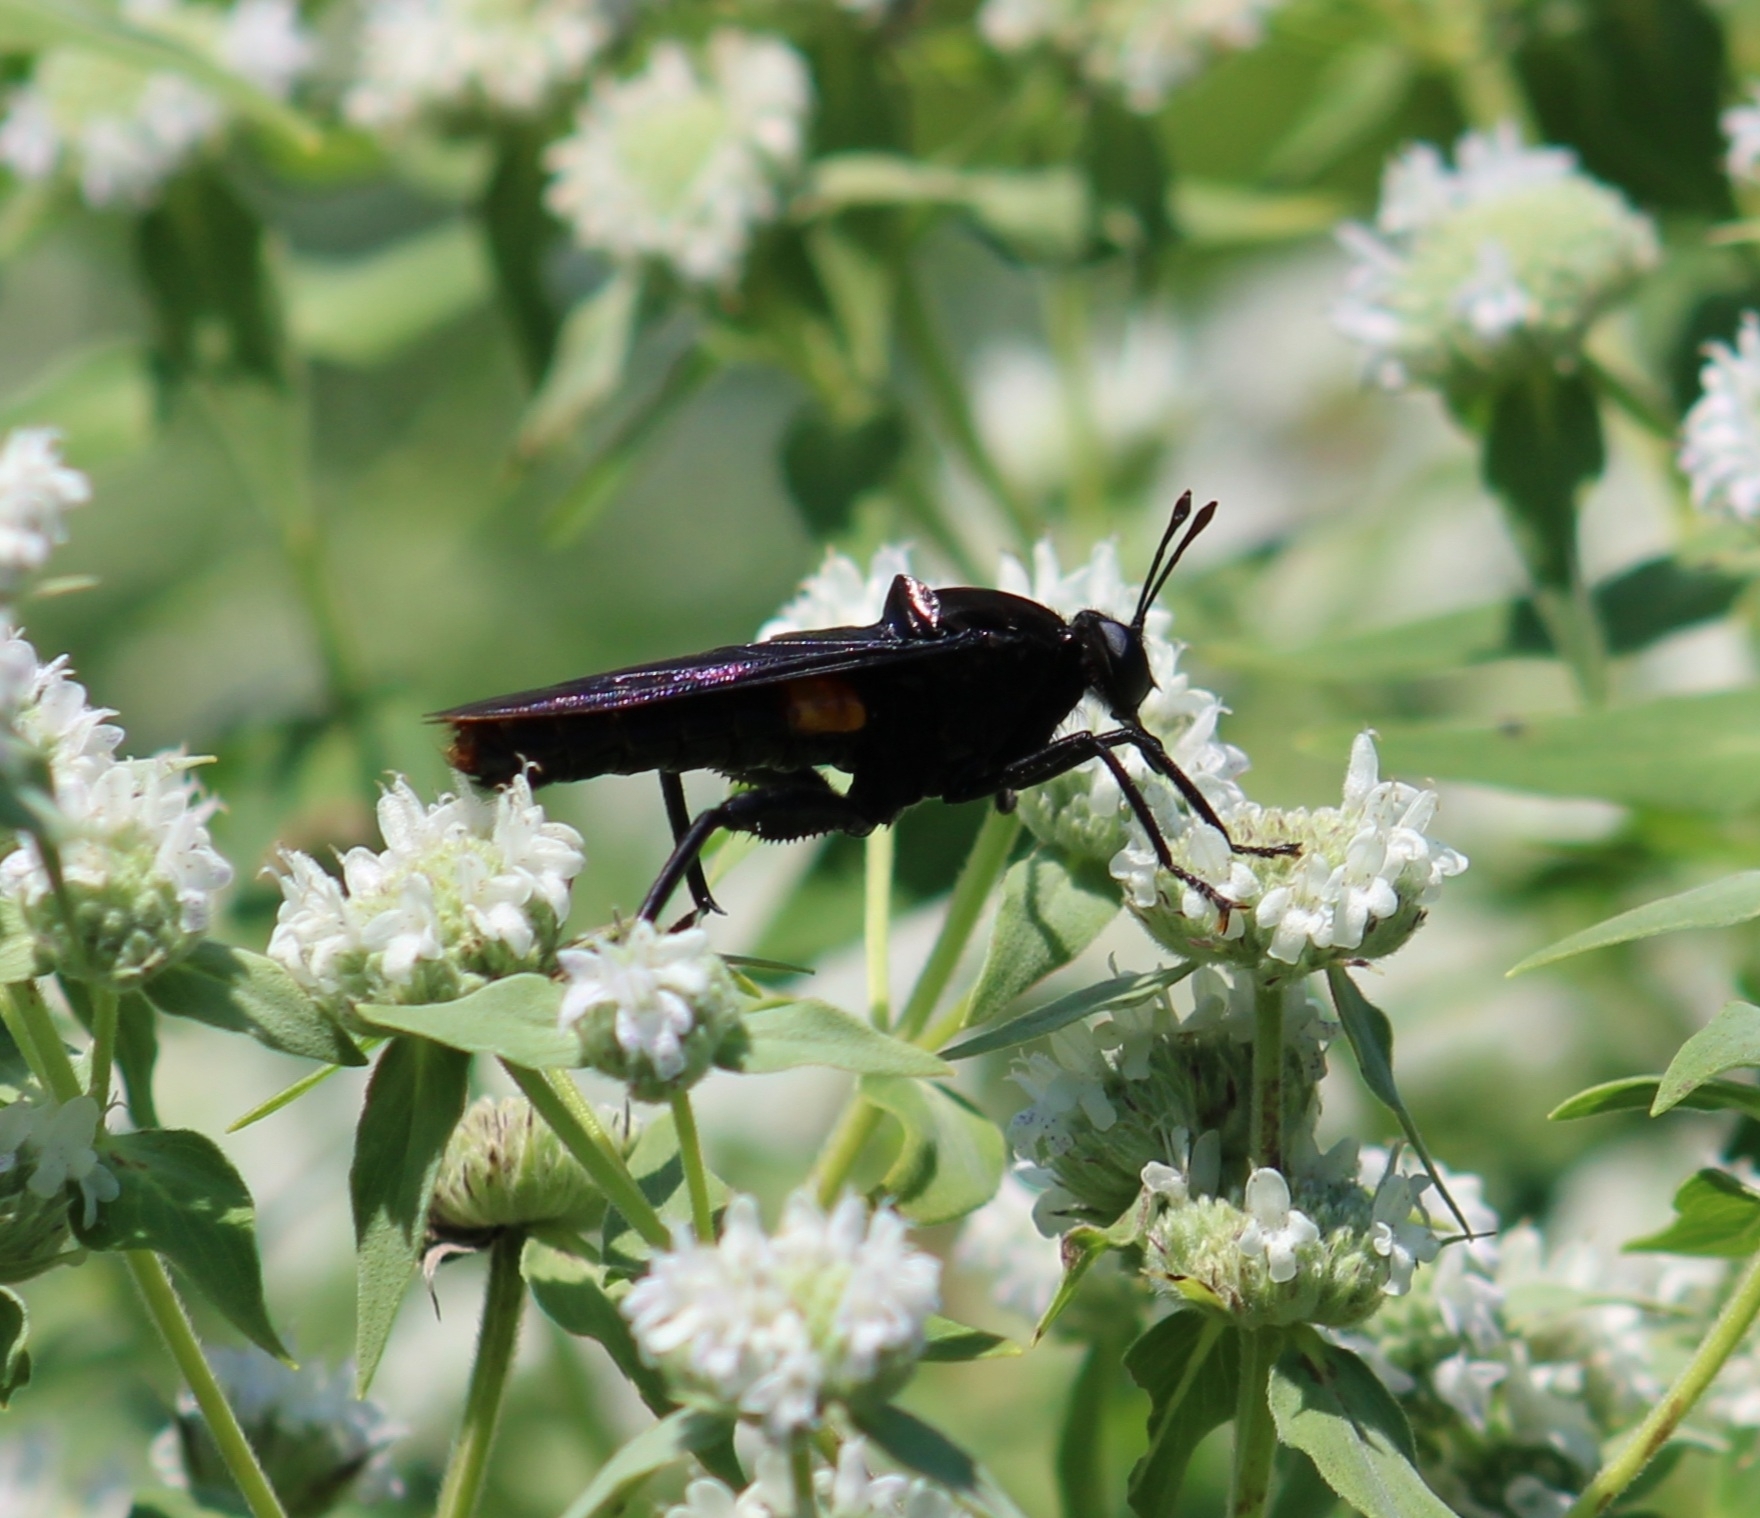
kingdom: Animalia
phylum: Arthropoda
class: Insecta
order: Diptera
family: Mydidae
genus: Mydas
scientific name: Mydas clavatus
